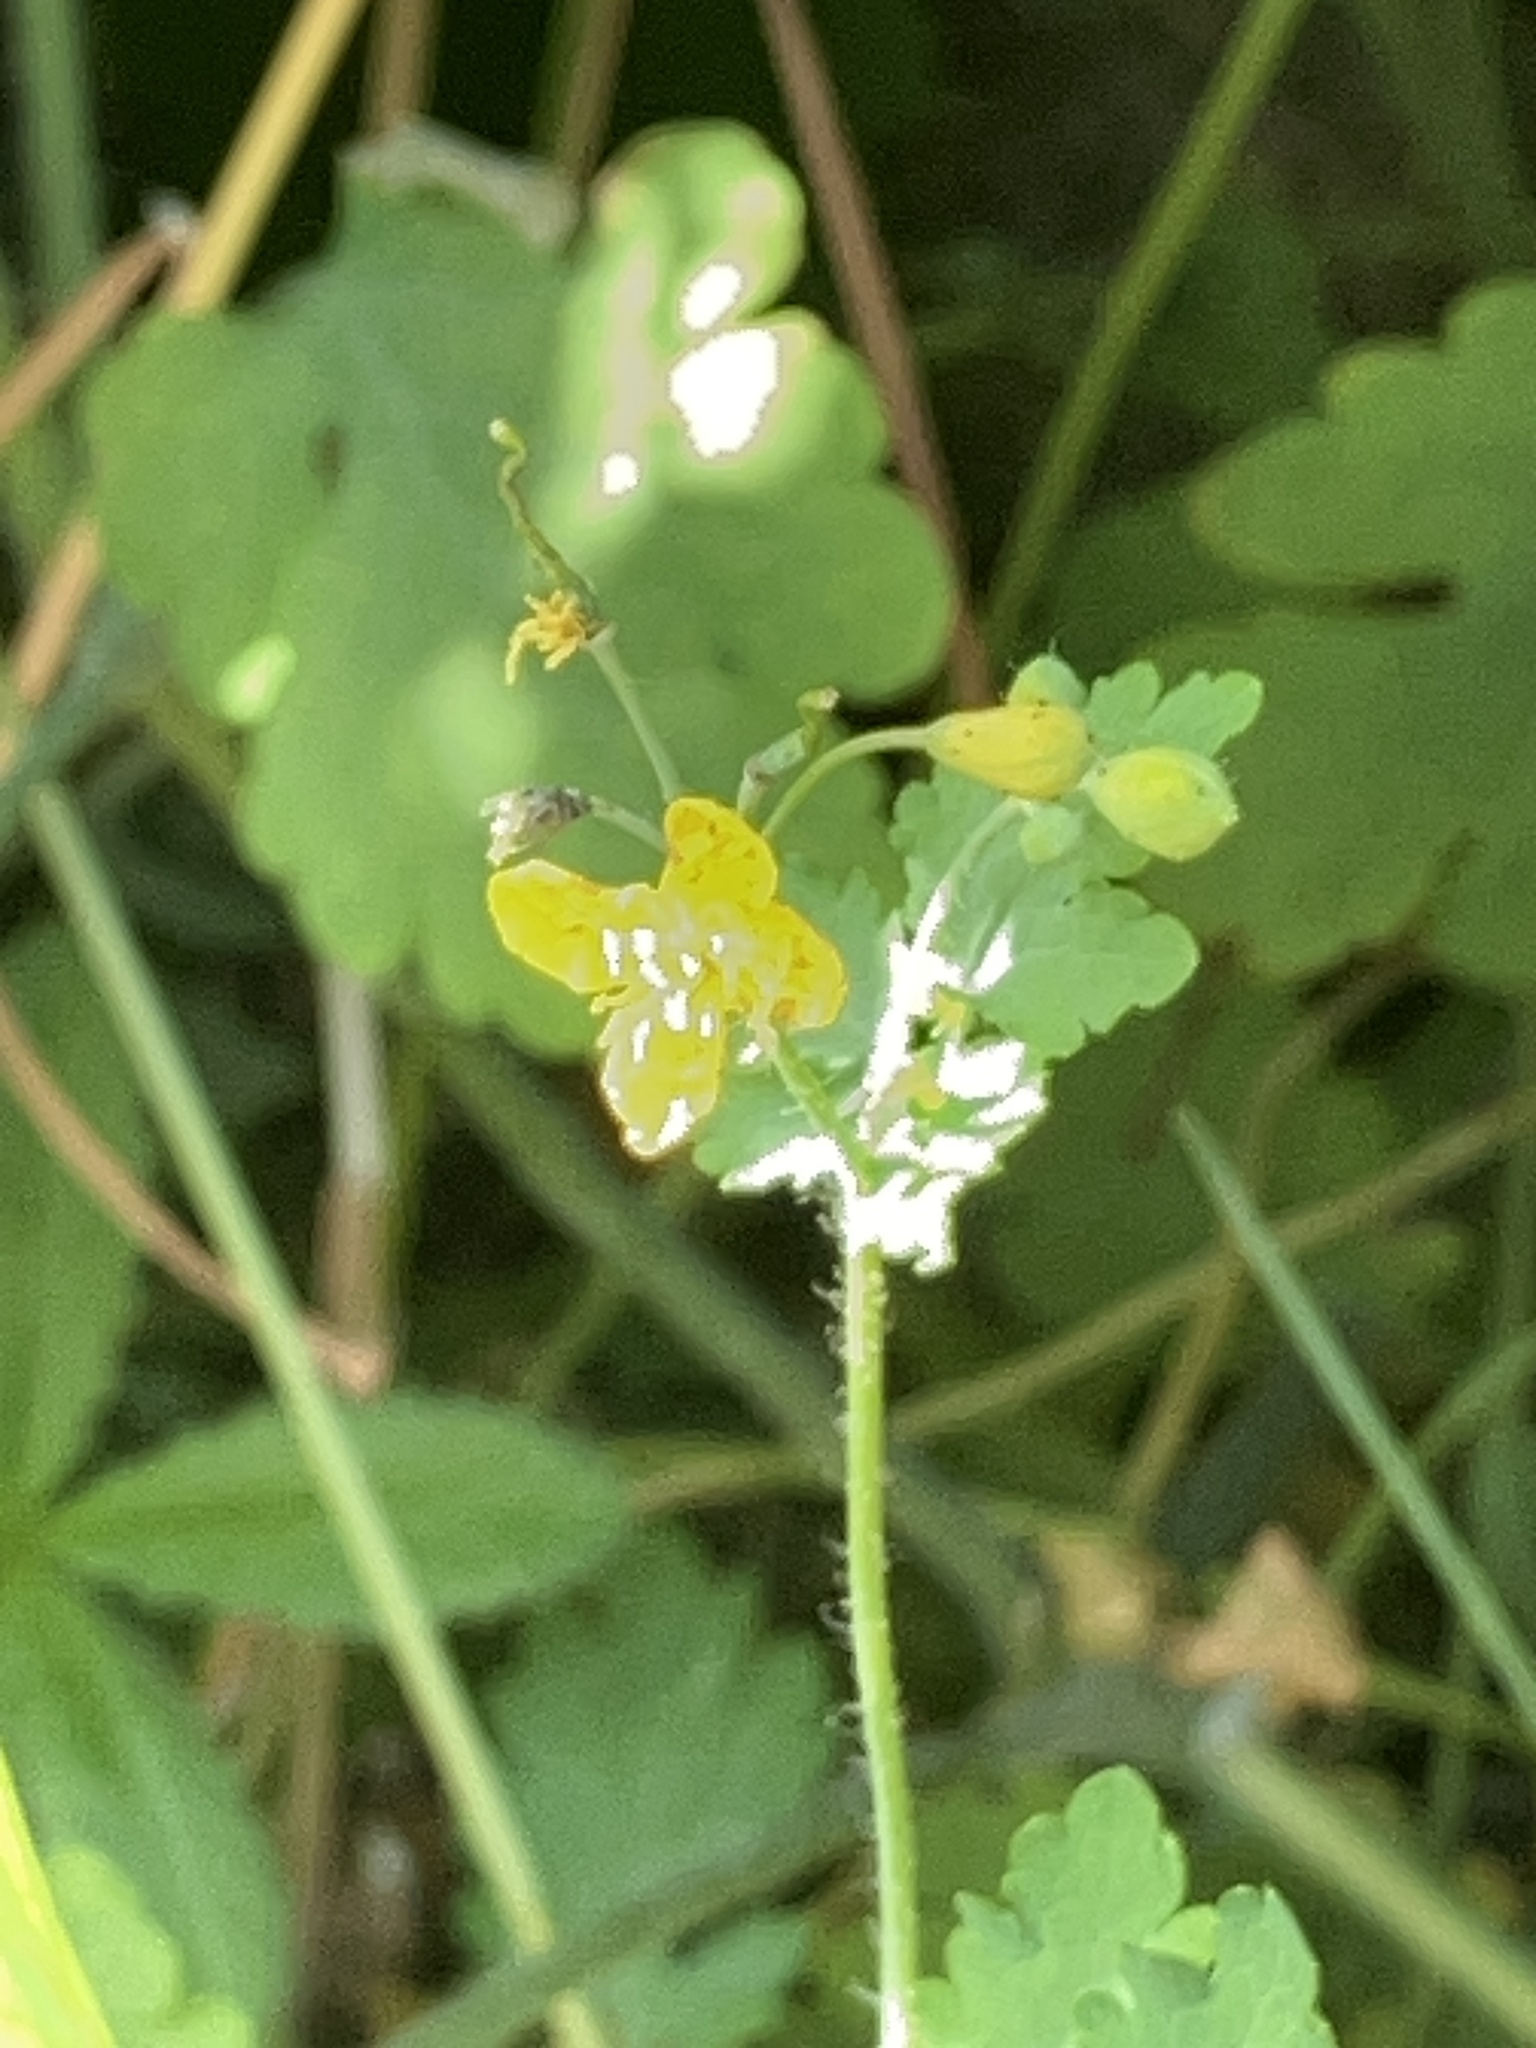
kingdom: Plantae
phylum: Tracheophyta
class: Magnoliopsida
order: Ranunculales
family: Papaveraceae
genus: Chelidonium
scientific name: Chelidonium majus
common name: Greater celandine
